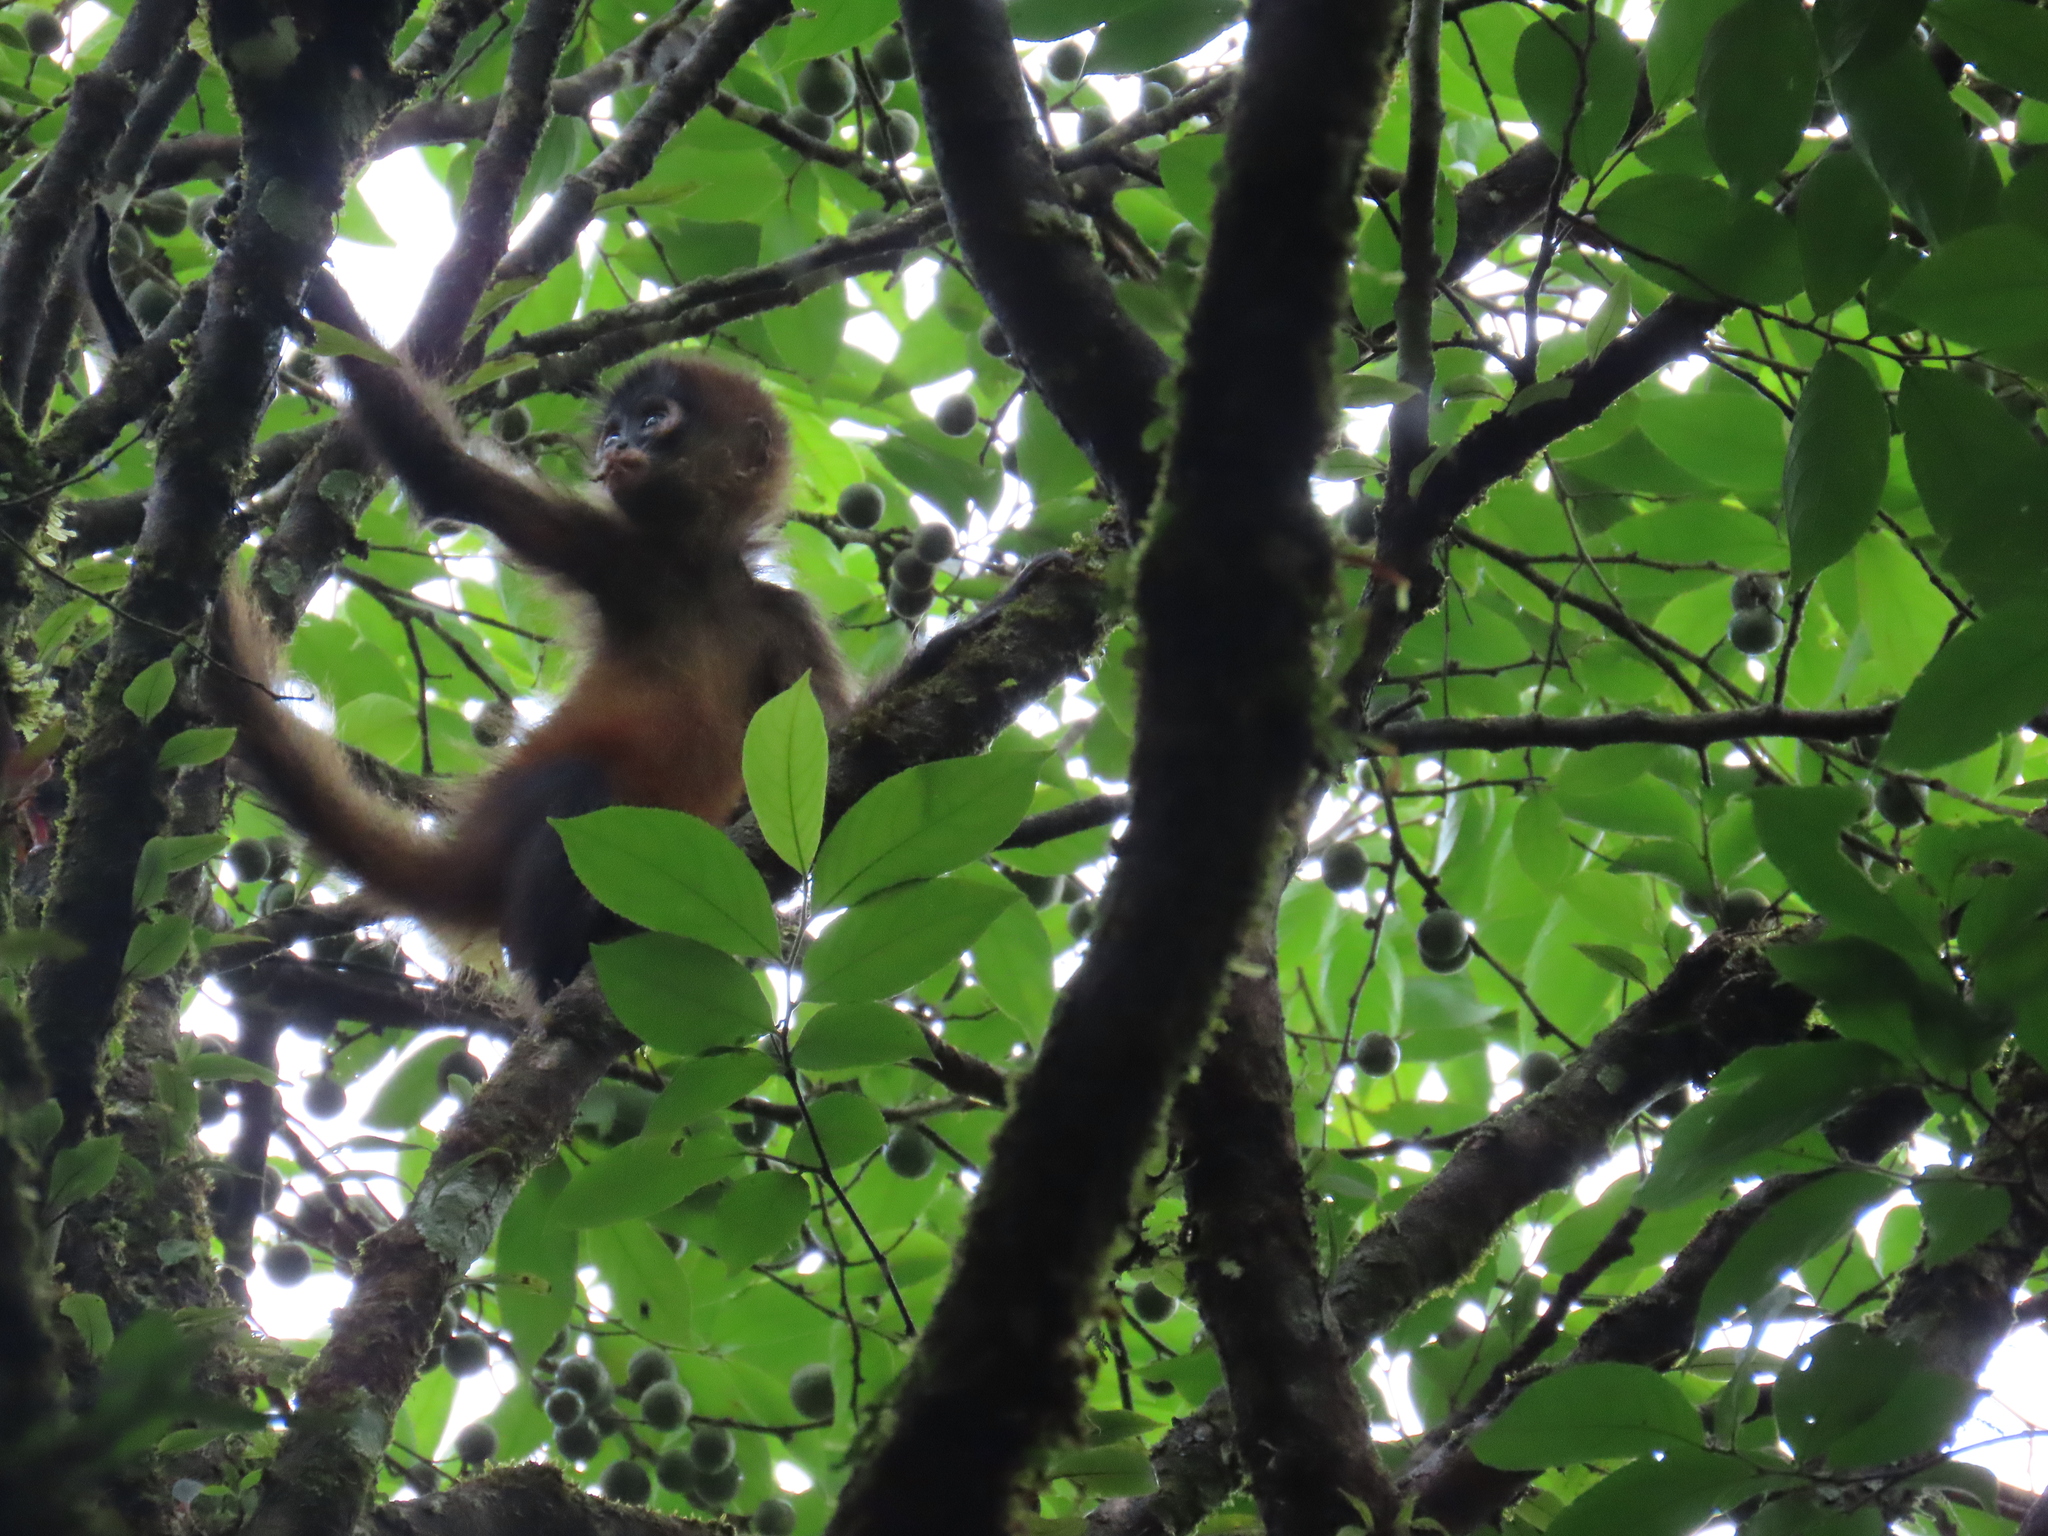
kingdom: Animalia
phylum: Chordata
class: Mammalia
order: Primates
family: Atelidae
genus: Ateles
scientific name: Ateles geoffroyi
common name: Black-handed spider monkey
